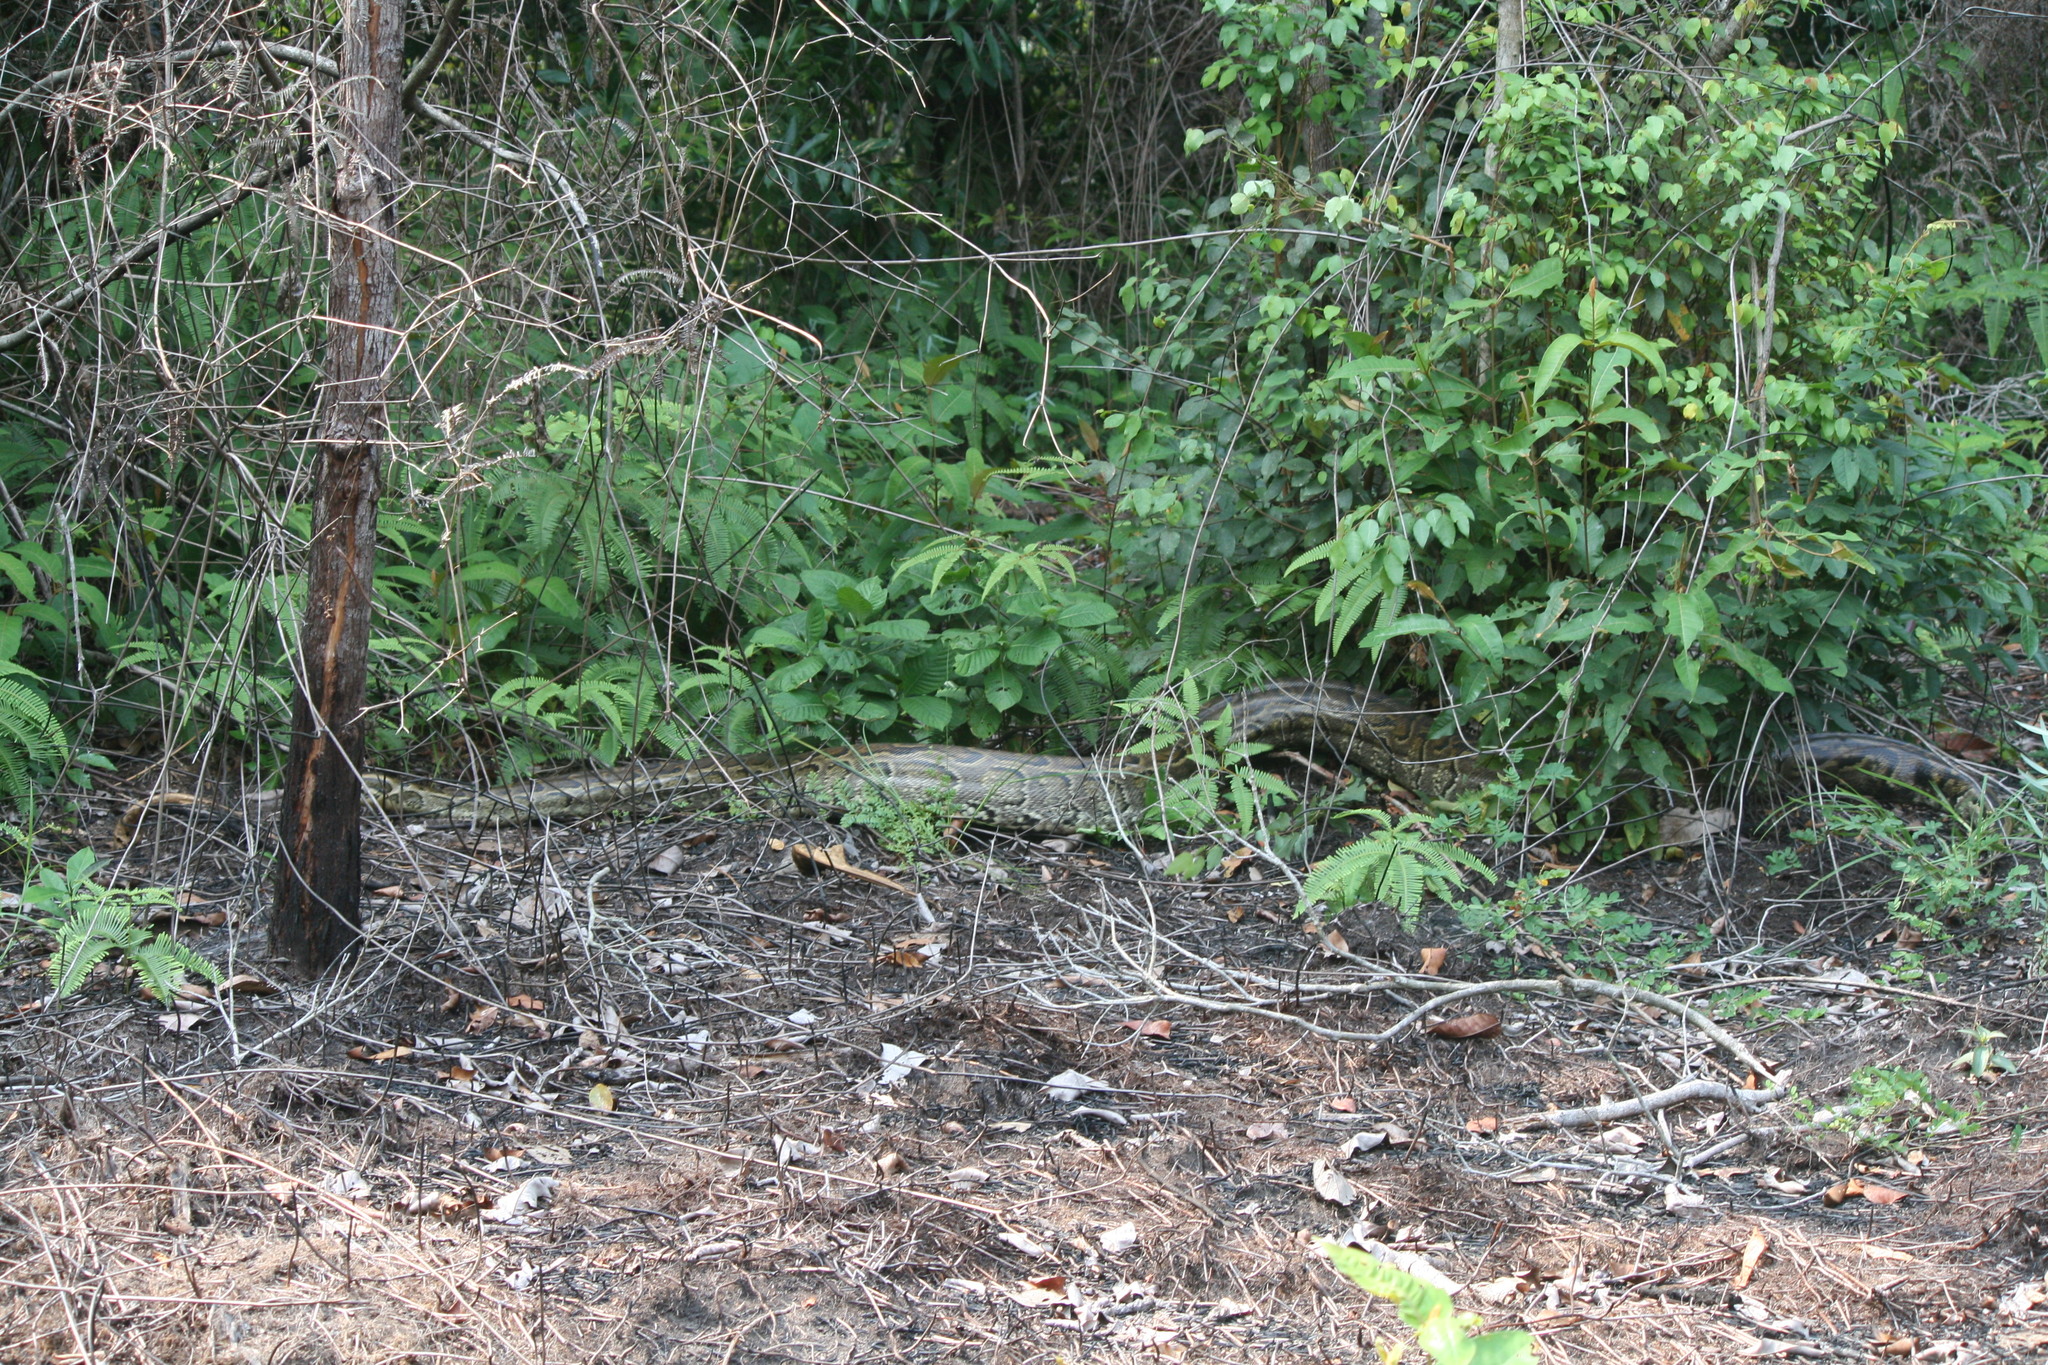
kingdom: Animalia
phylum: Chordata
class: Squamata
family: Pythonidae
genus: Python
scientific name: Python sebae
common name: African rock python
